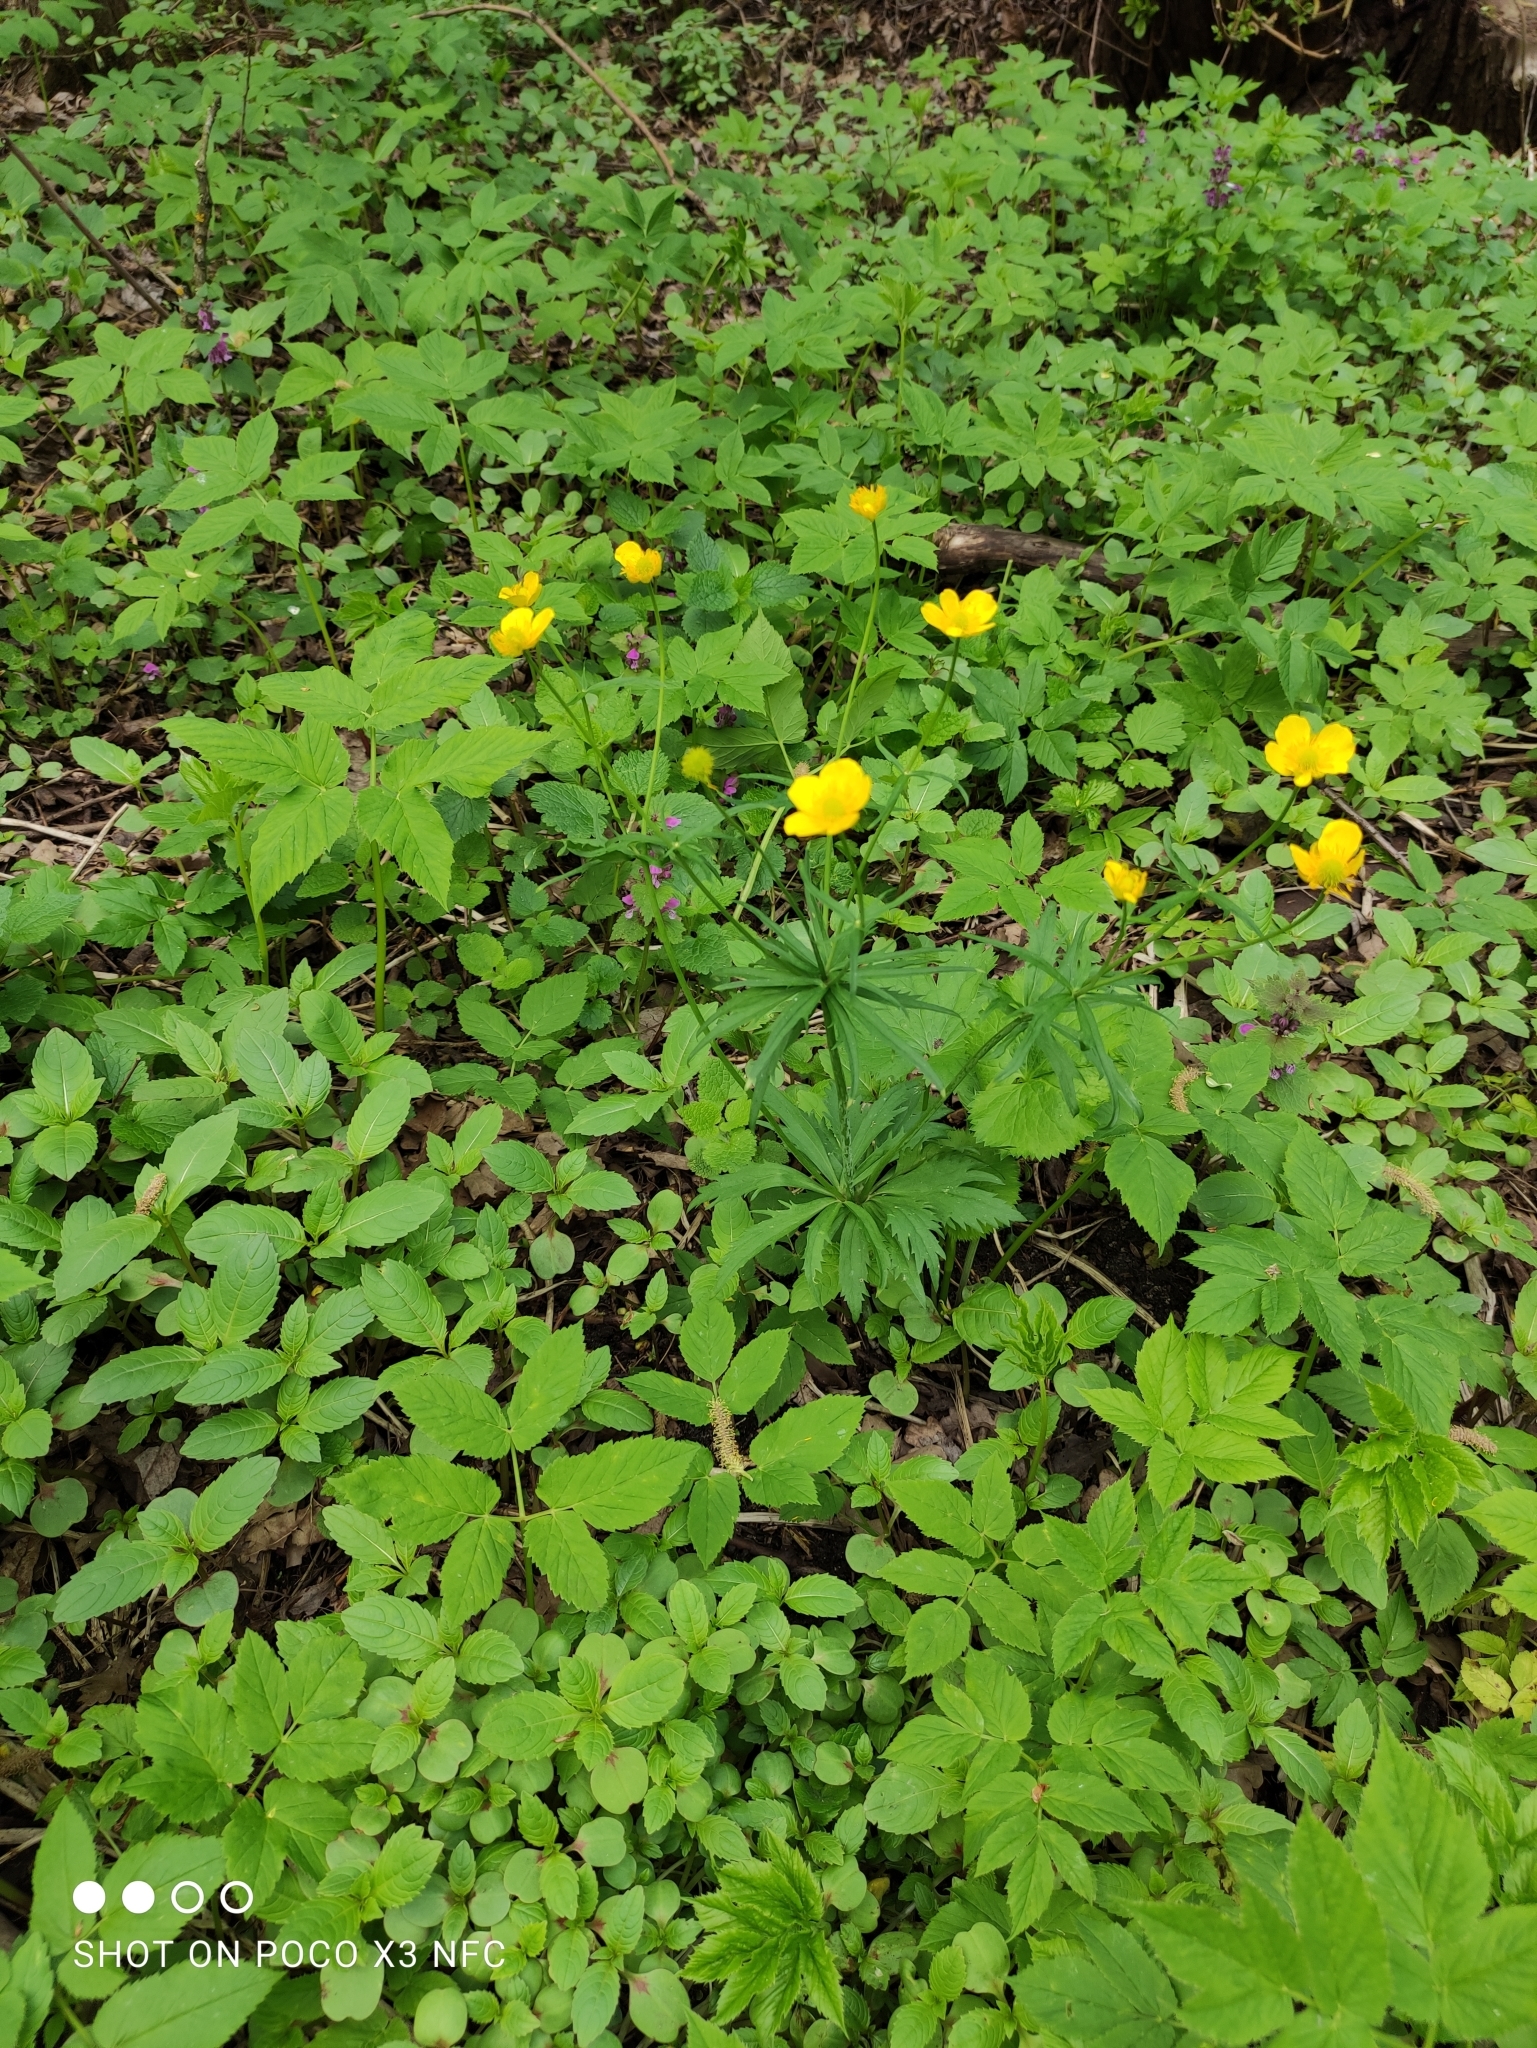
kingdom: Plantae
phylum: Tracheophyta
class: Magnoliopsida
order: Ranunculales
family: Ranunculaceae
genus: Ranunculus
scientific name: Ranunculus acris
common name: Meadow buttercup
